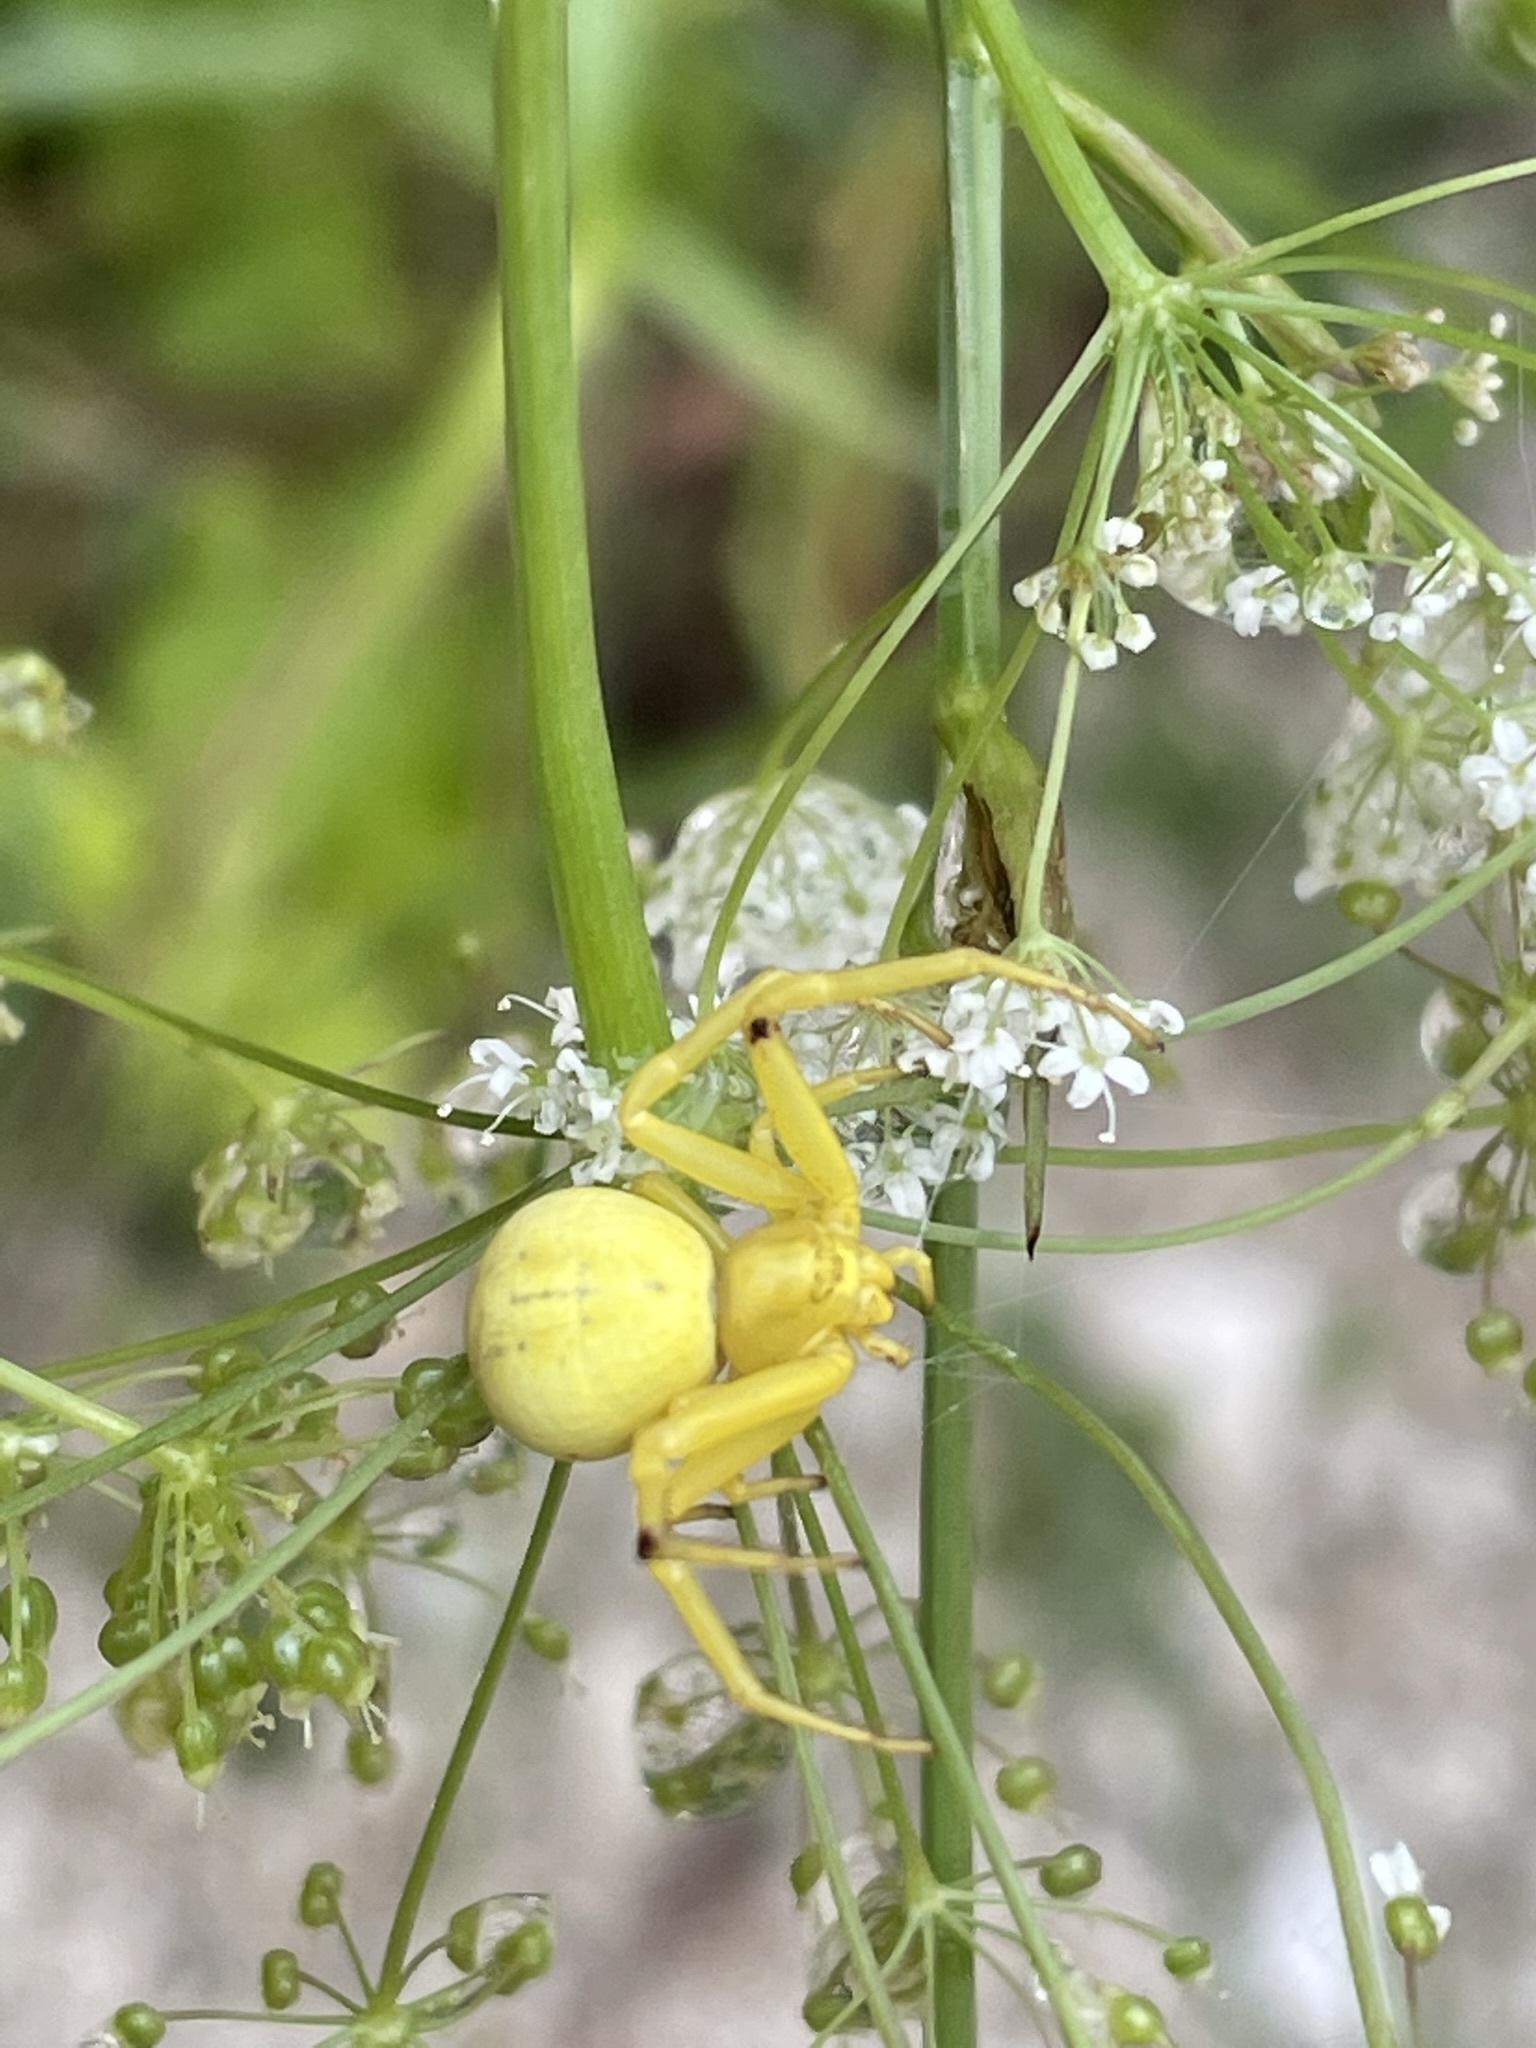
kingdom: Animalia
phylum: Arthropoda
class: Arachnida
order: Araneae
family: Thomisidae
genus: Misumena
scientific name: Misumena vatia
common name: Goldenrod crab spider
